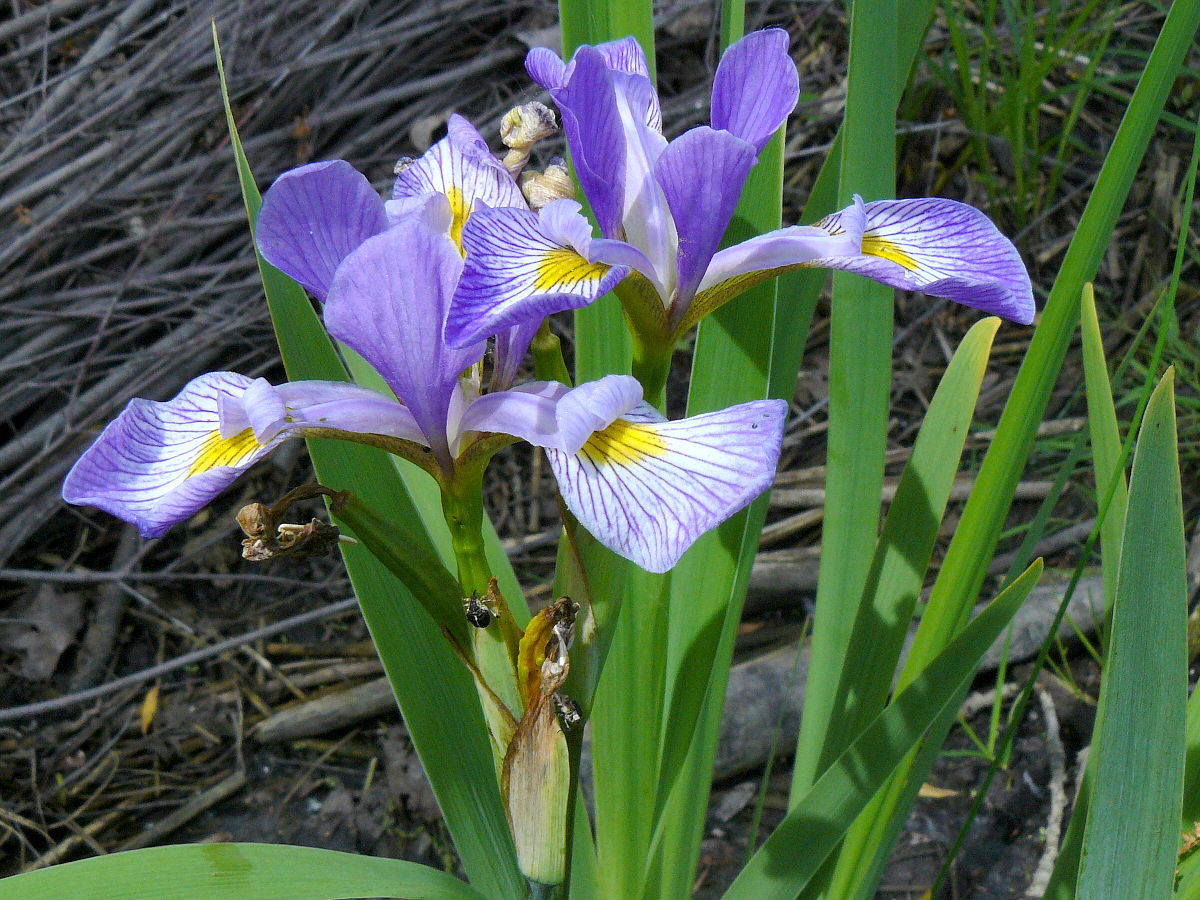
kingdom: Plantae
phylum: Tracheophyta
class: Liliopsida
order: Asparagales
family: Iridaceae
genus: Iris
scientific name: Iris virginica
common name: Southern blue flag
